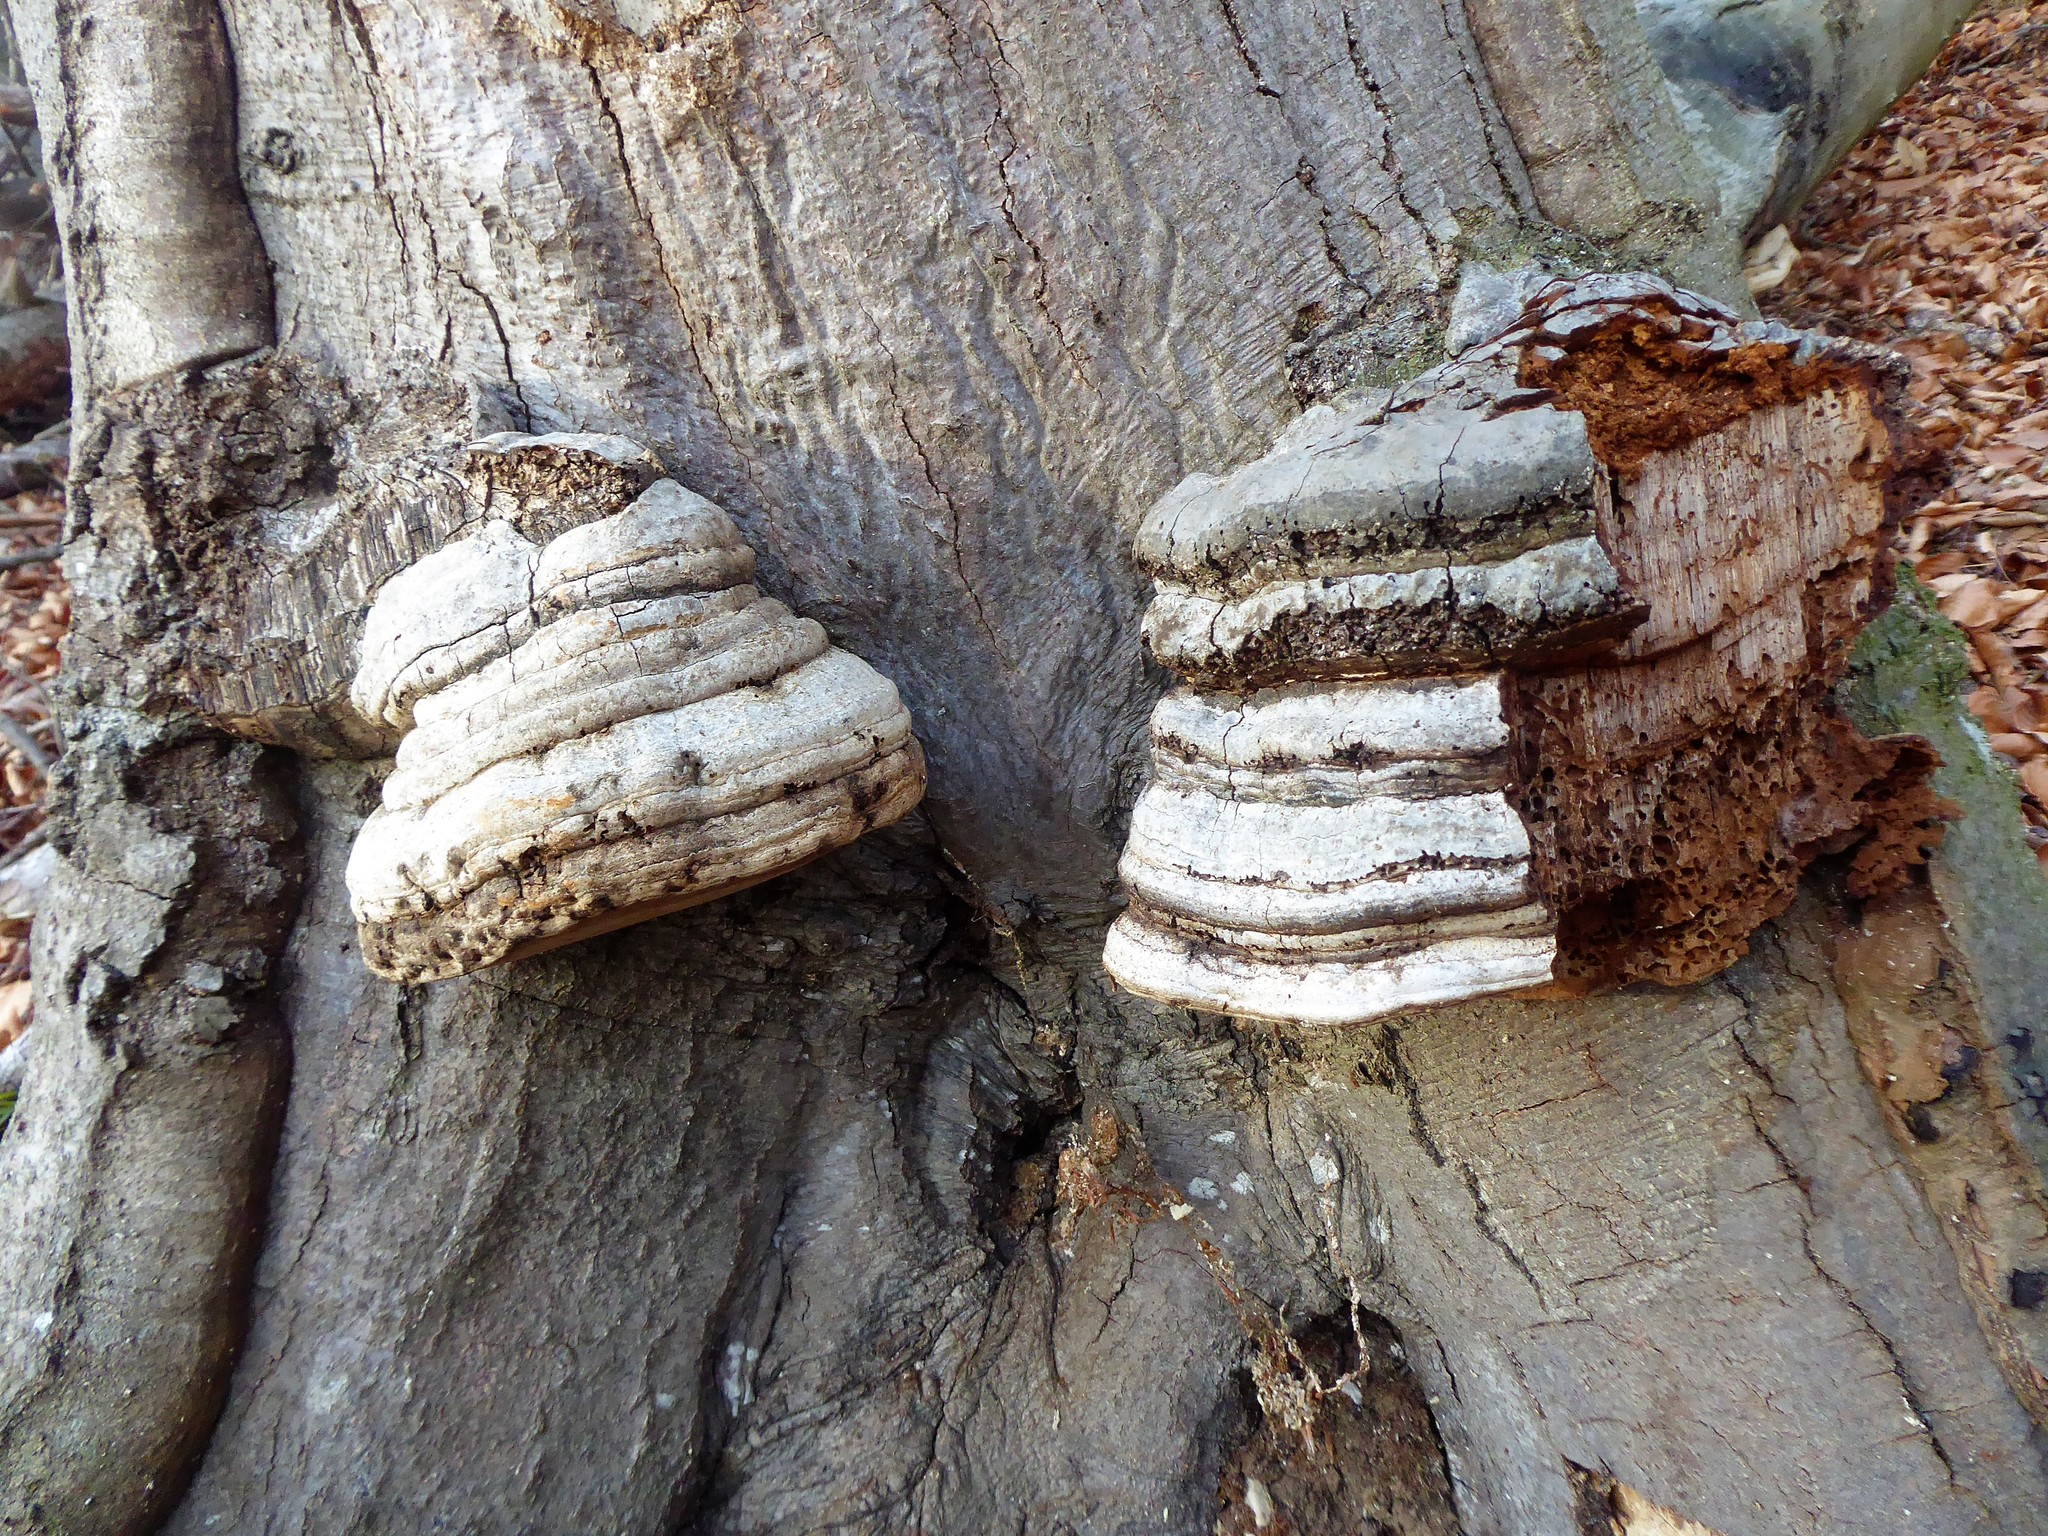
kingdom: Fungi
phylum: Basidiomycota
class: Agaricomycetes
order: Polyporales
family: Polyporaceae
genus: Fomes
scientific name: Fomes fomentarius
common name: Hoof fungus
